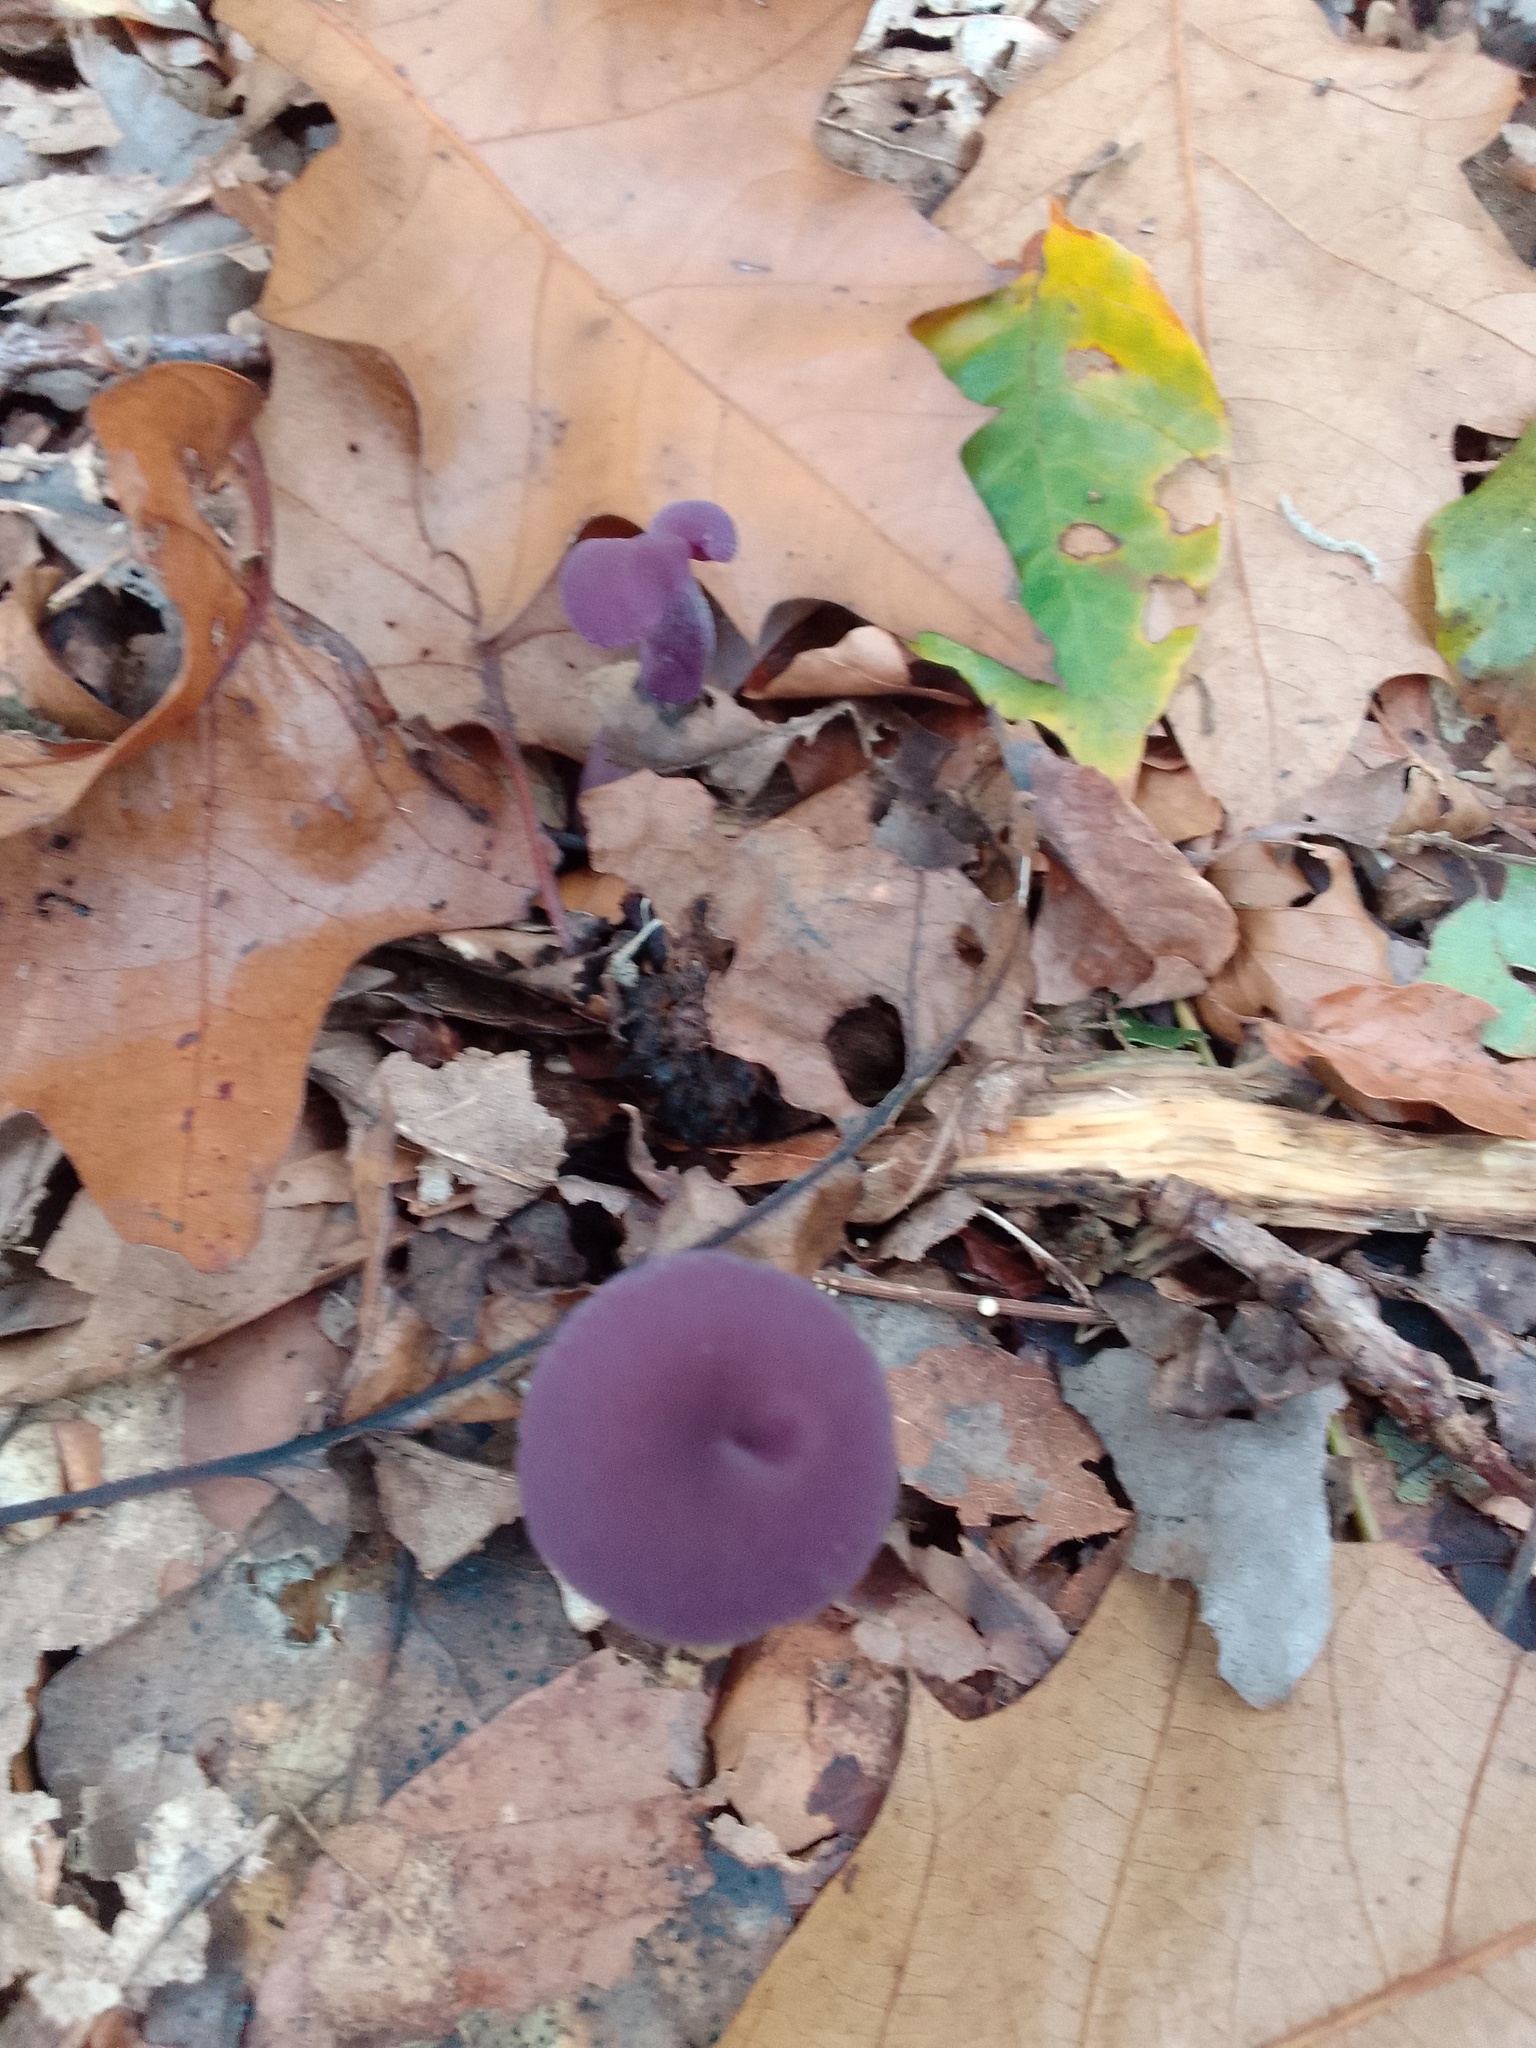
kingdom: Fungi
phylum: Basidiomycota
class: Agaricomycetes
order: Agaricales
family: Hydnangiaceae
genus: Laccaria
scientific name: Laccaria amethystina
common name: Amethyst deceiver
